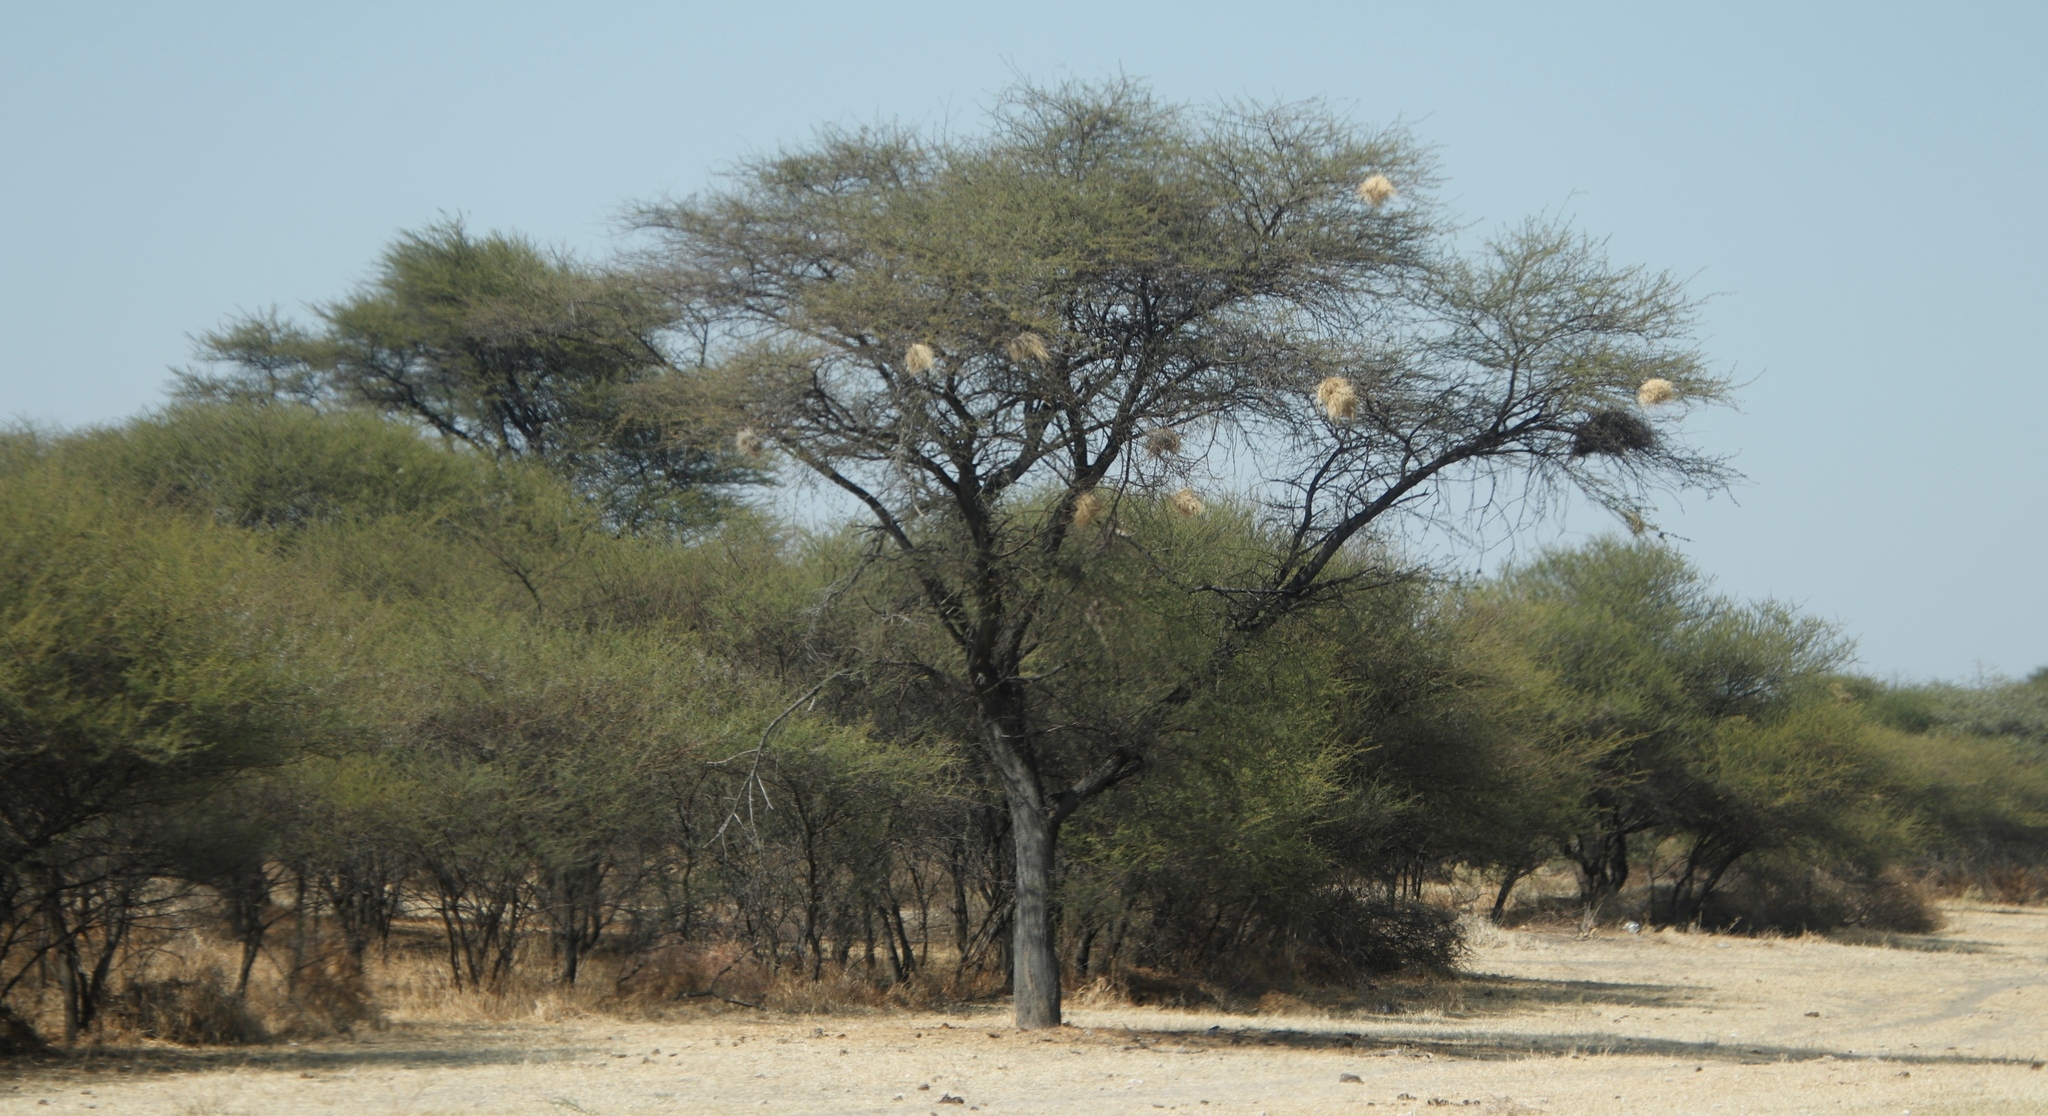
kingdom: Animalia
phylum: Chordata
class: Aves
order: Passeriformes
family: Passeridae
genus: Plocepasser
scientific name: Plocepasser mahali
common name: White-browed sparrow-weaver
